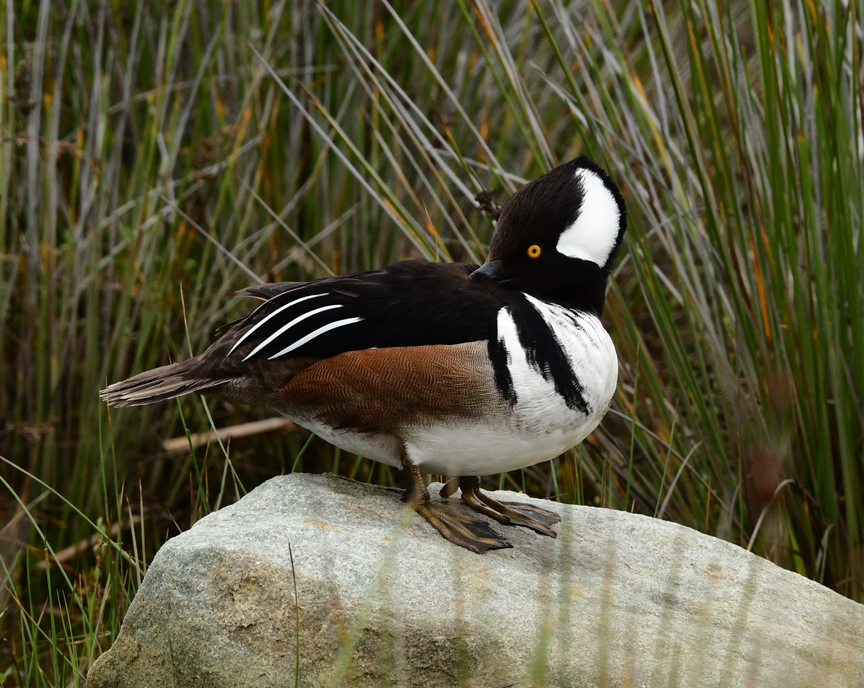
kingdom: Animalia
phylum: Chordata
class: Aves
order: Anseriformes
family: Anatidae
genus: Lophodytes
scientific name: Lophodytes cucullatus
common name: Hooded merganser
